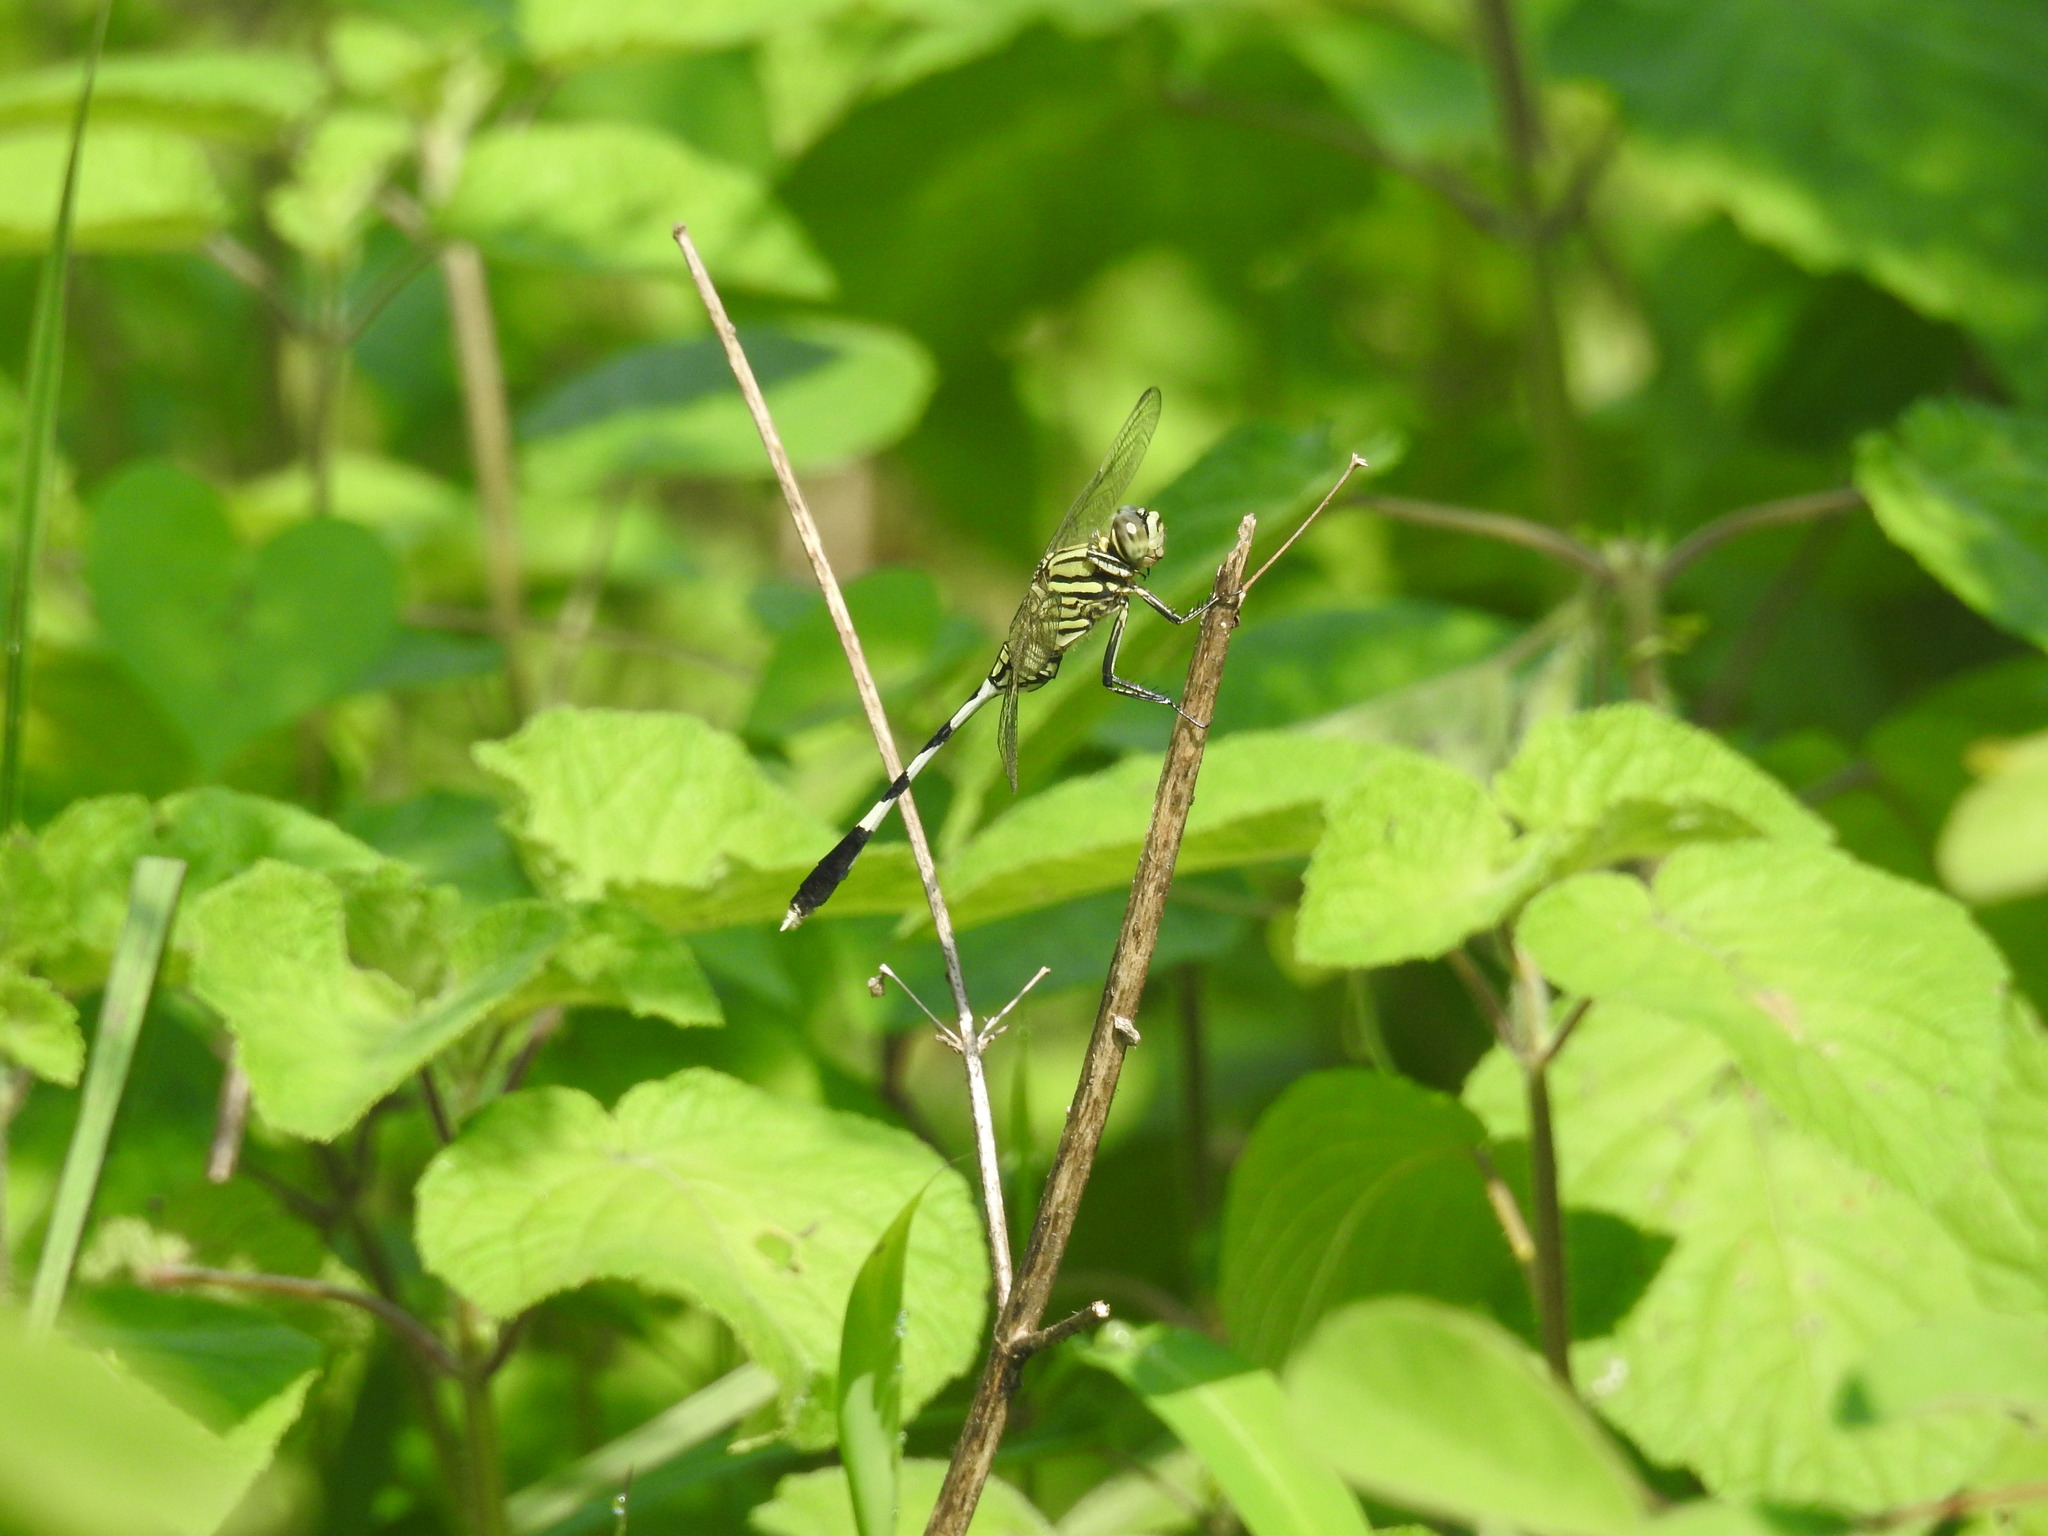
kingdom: Animalia
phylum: Arthropoda
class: Insecta
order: Odonata
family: Libellulidae
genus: Orthetrum
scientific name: Orthetrum sabina
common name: Slender skimmer
